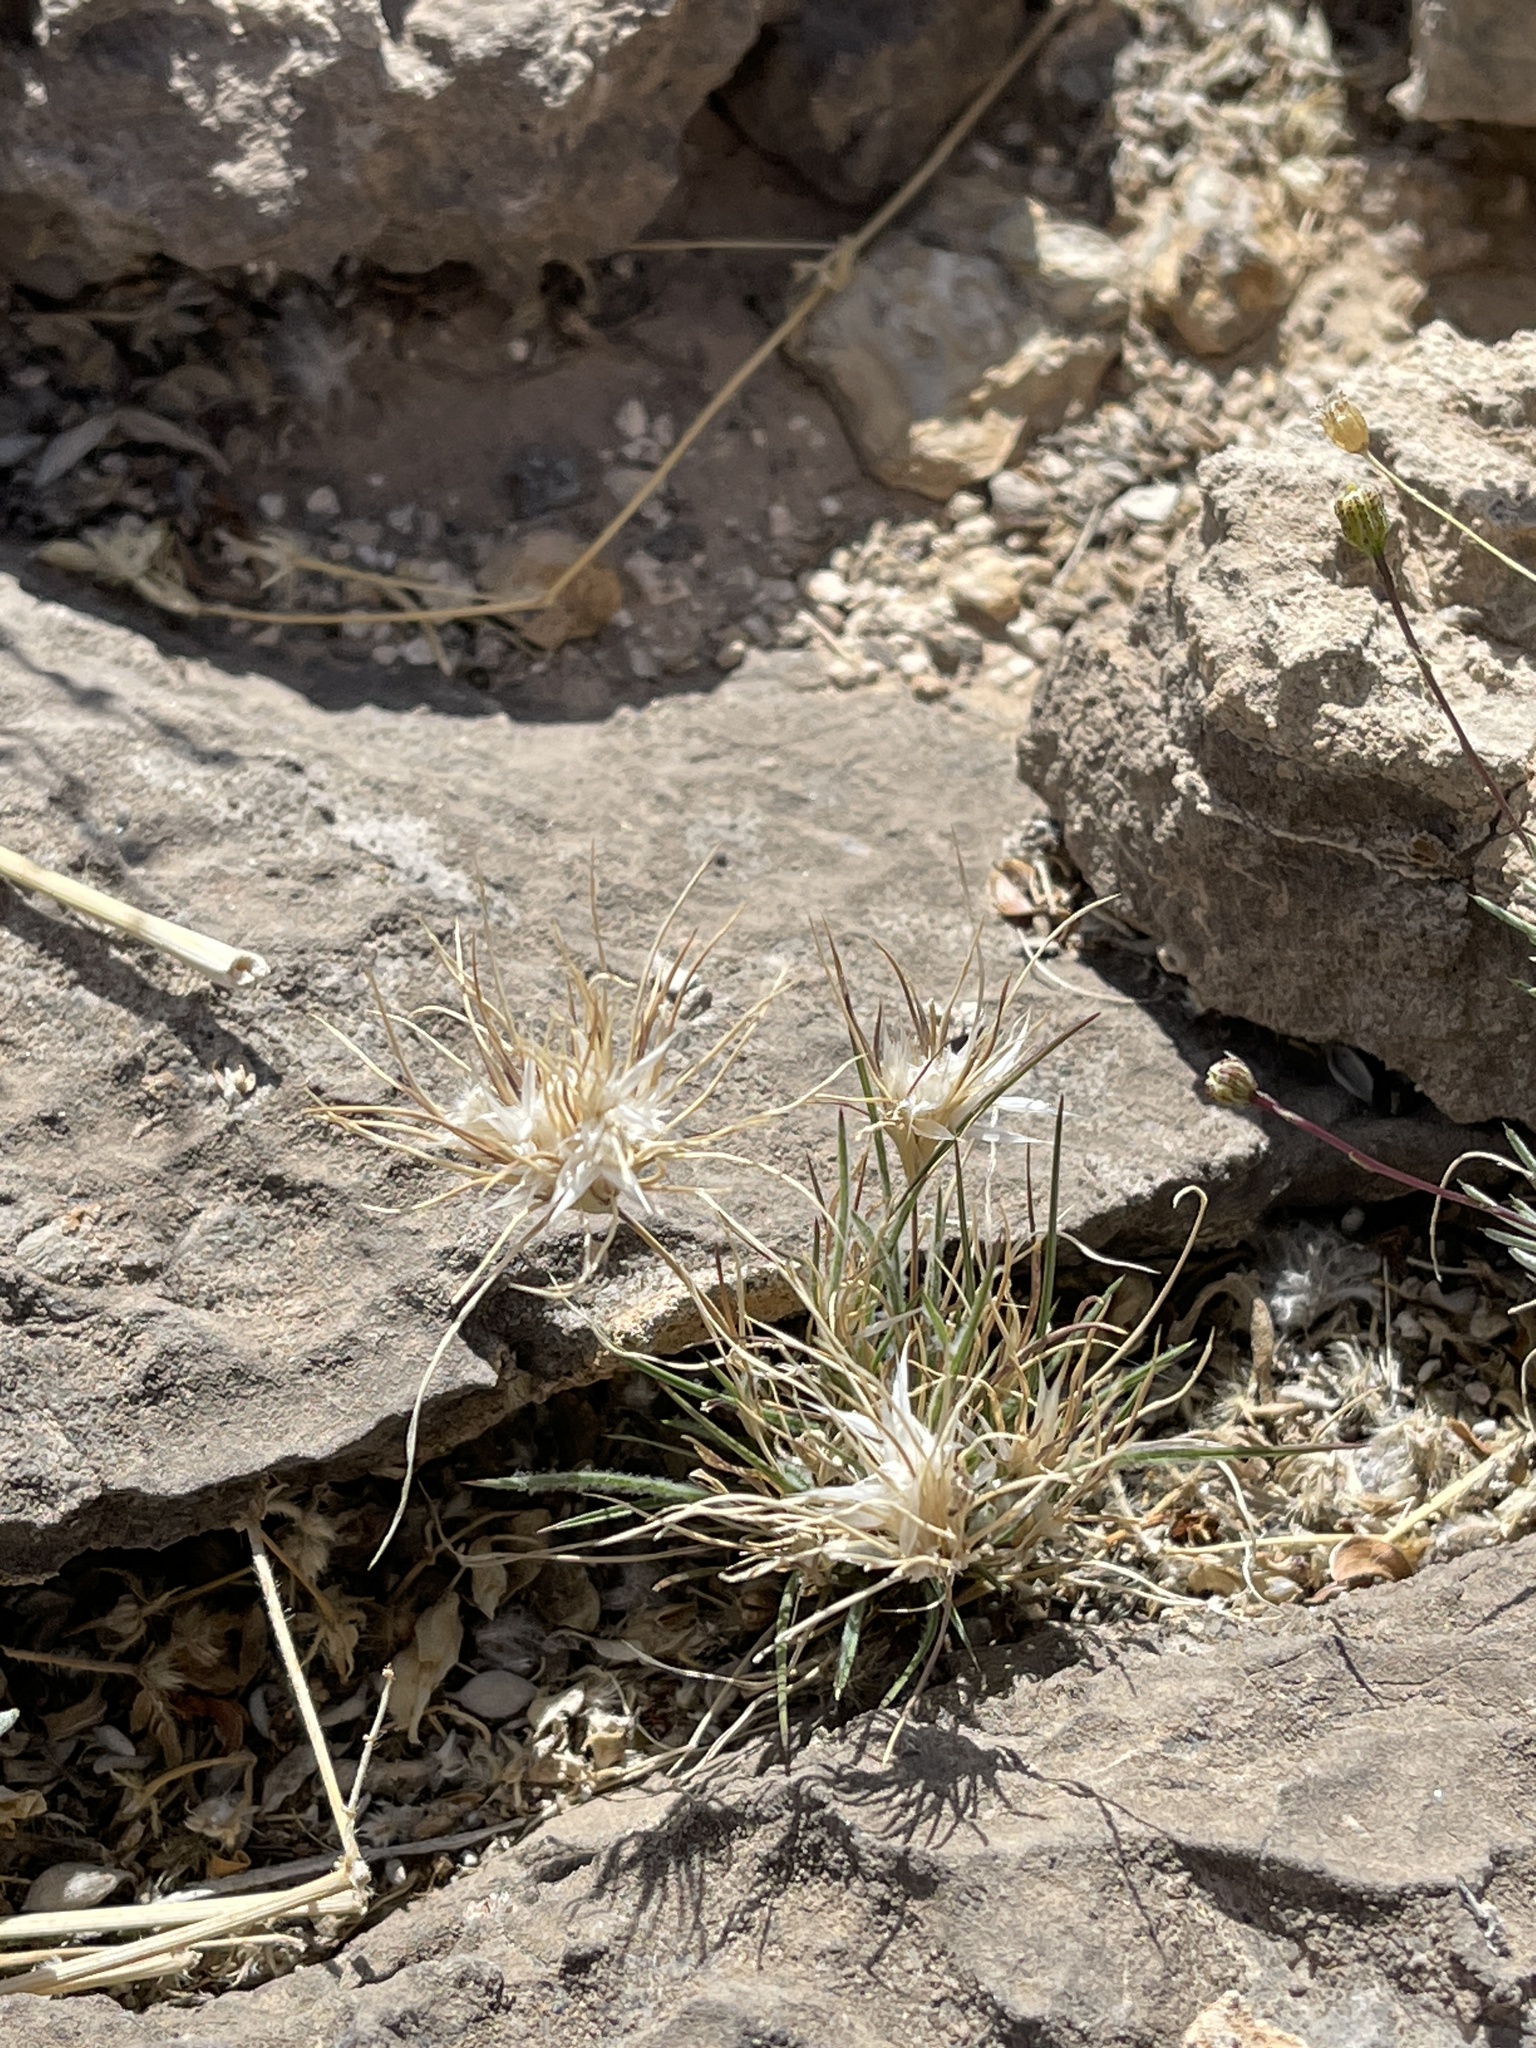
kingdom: Plantae
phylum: Tracheophyta
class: Liliopsida
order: Poales
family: Poaceae
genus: Dasyochloa
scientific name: Dasyochloa pulchella
